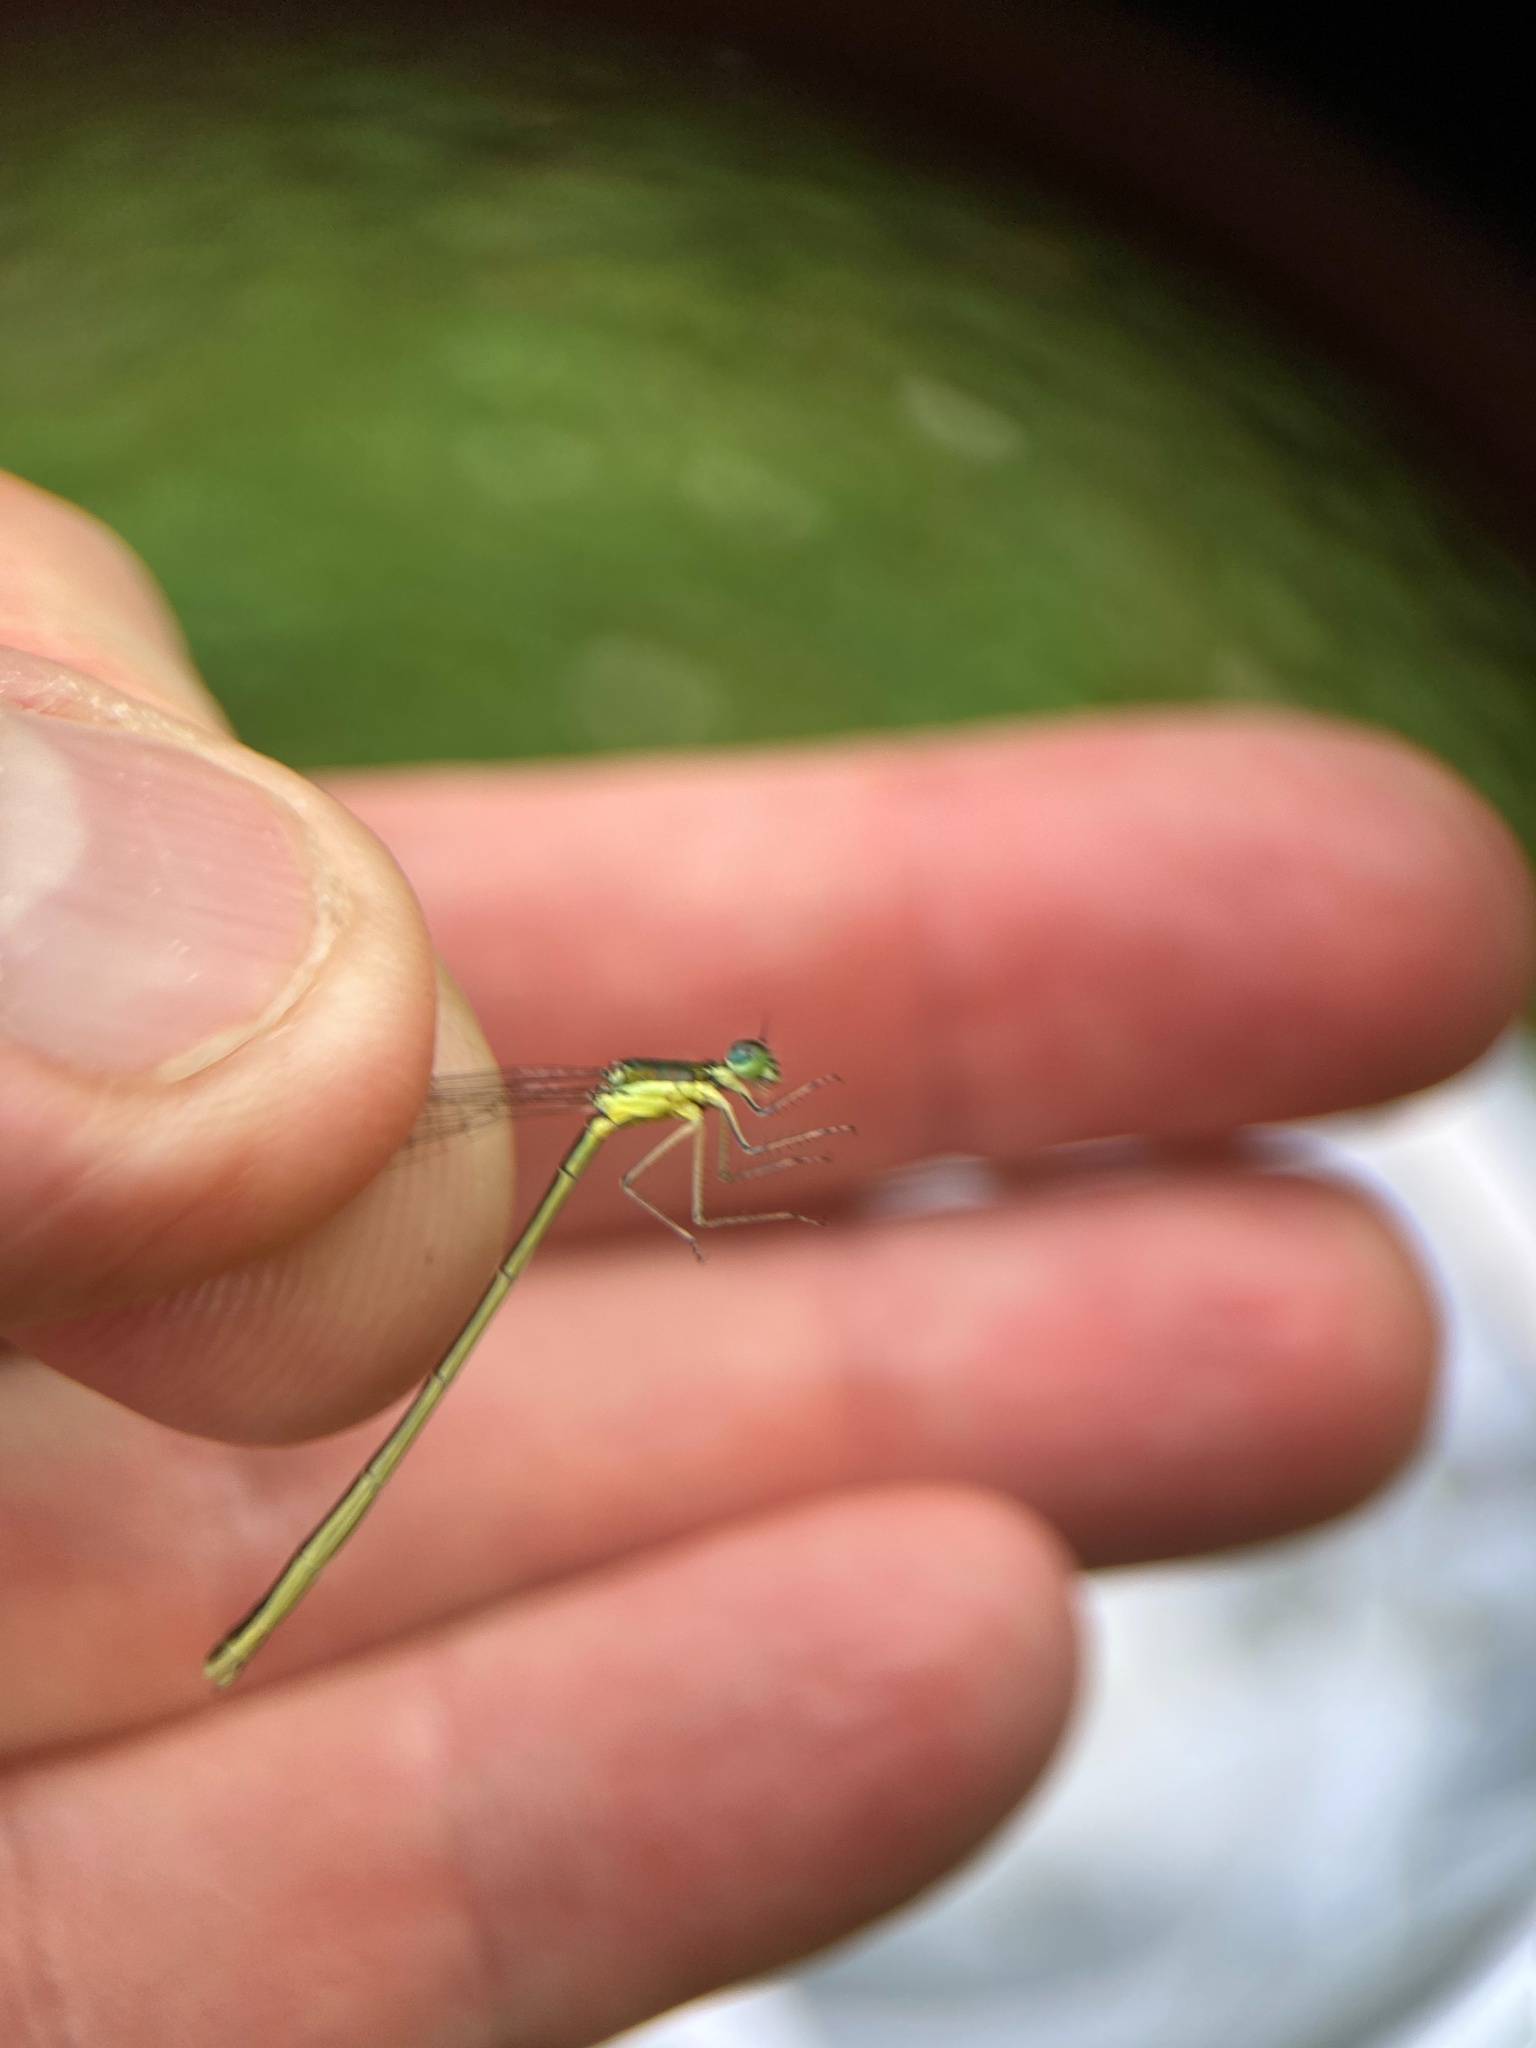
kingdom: Animalia
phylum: Arthropoda
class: Insecta
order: Odonata
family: Coenagrionidae
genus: Nehalennia
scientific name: Nehalennia irene
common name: Sedge sprite
